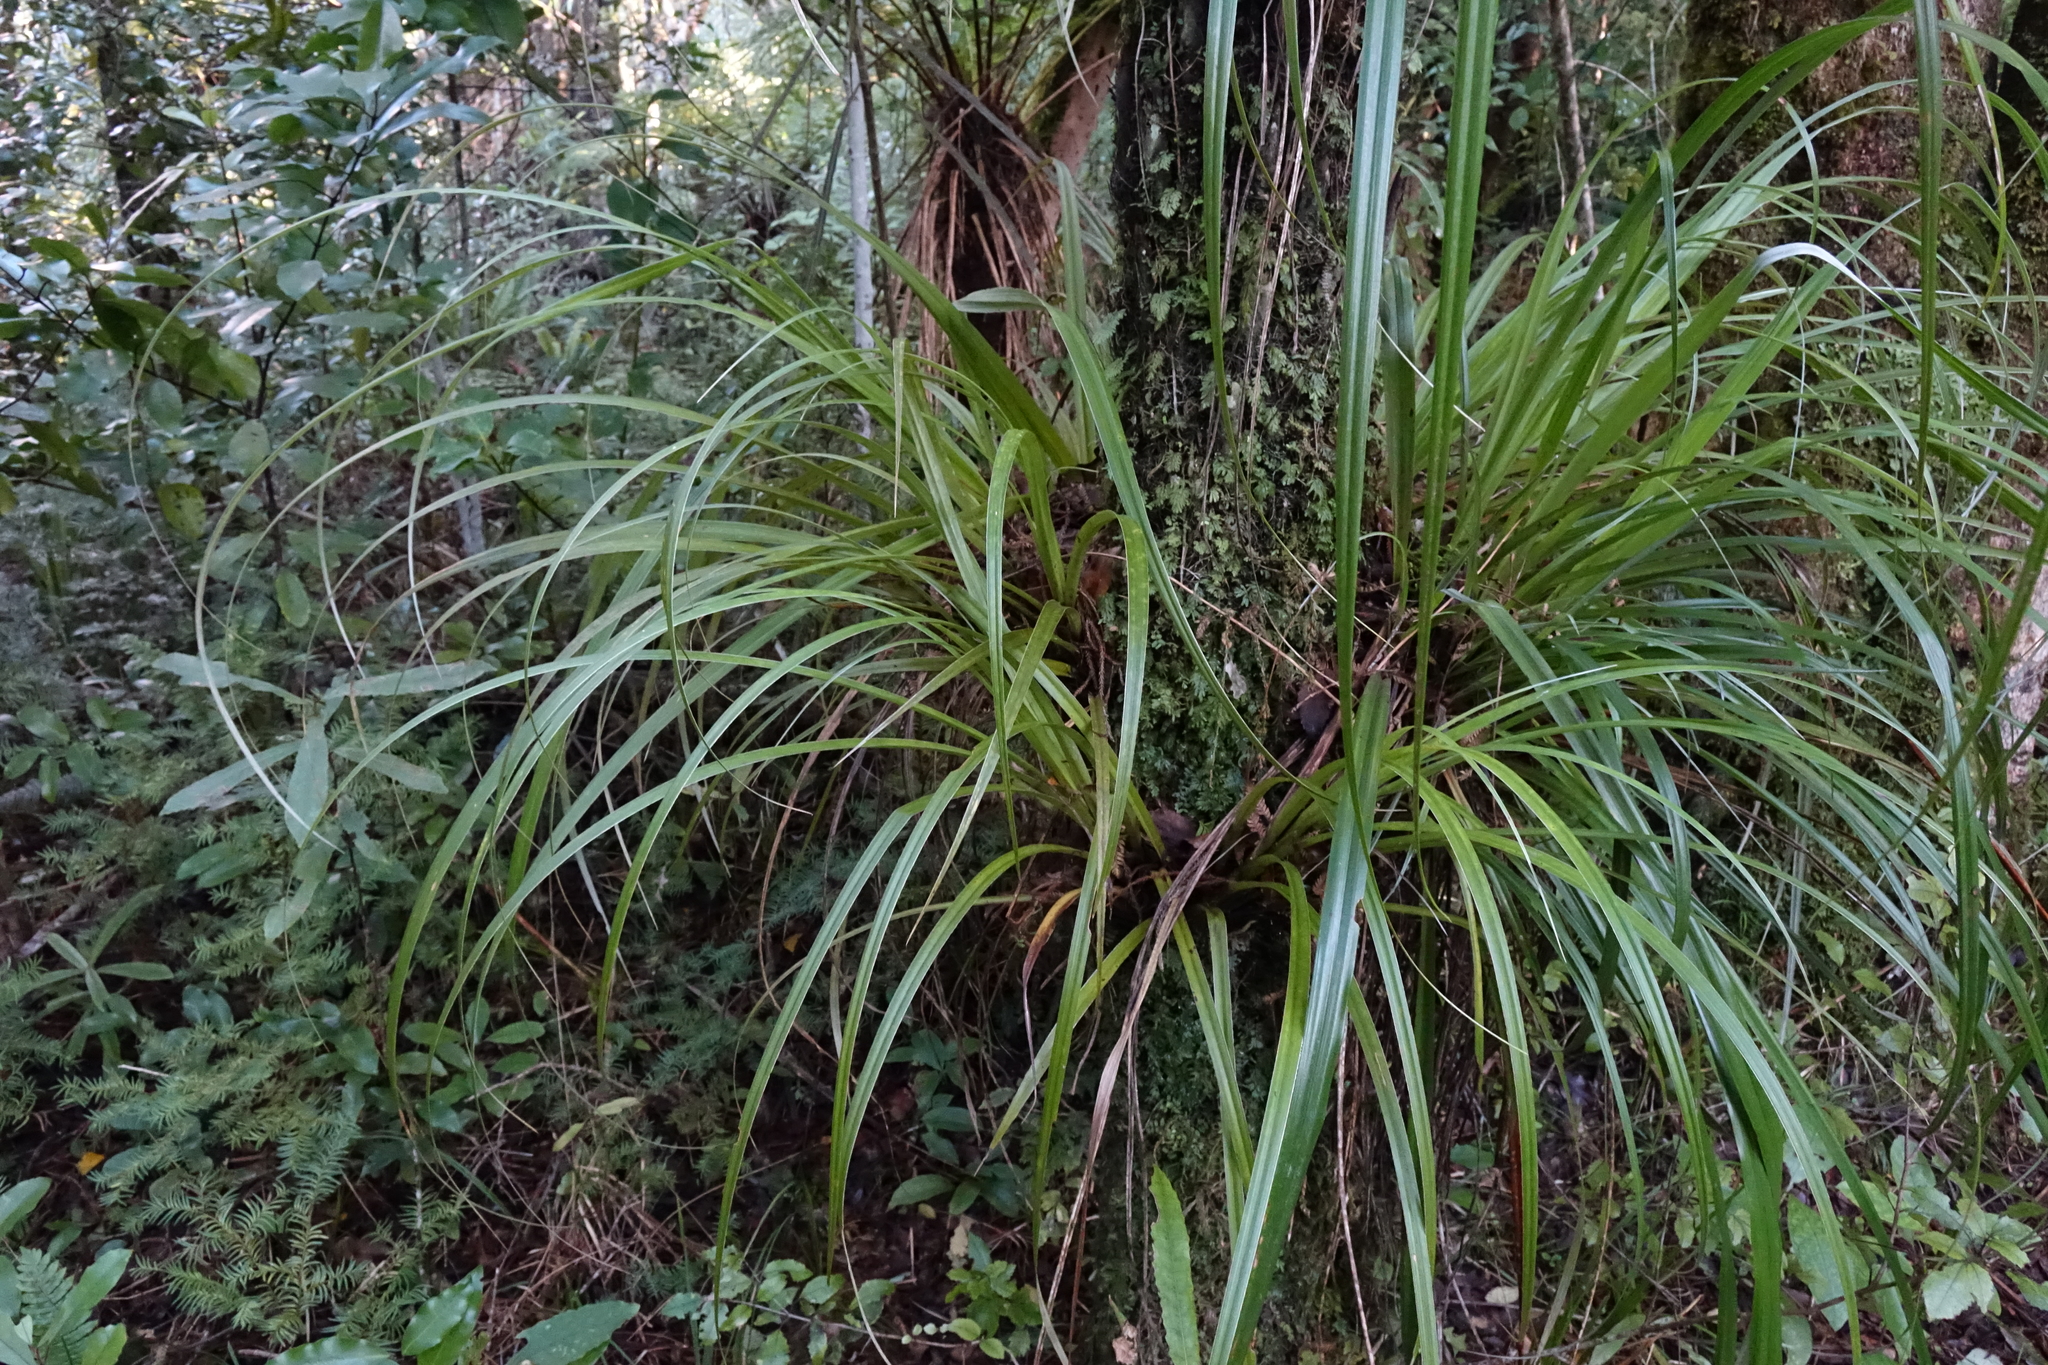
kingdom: Plantae
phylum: Tracheophyta
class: Liliopsida
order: Asparagales
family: Asteliaceae
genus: Astelia
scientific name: Astelia microsperma
